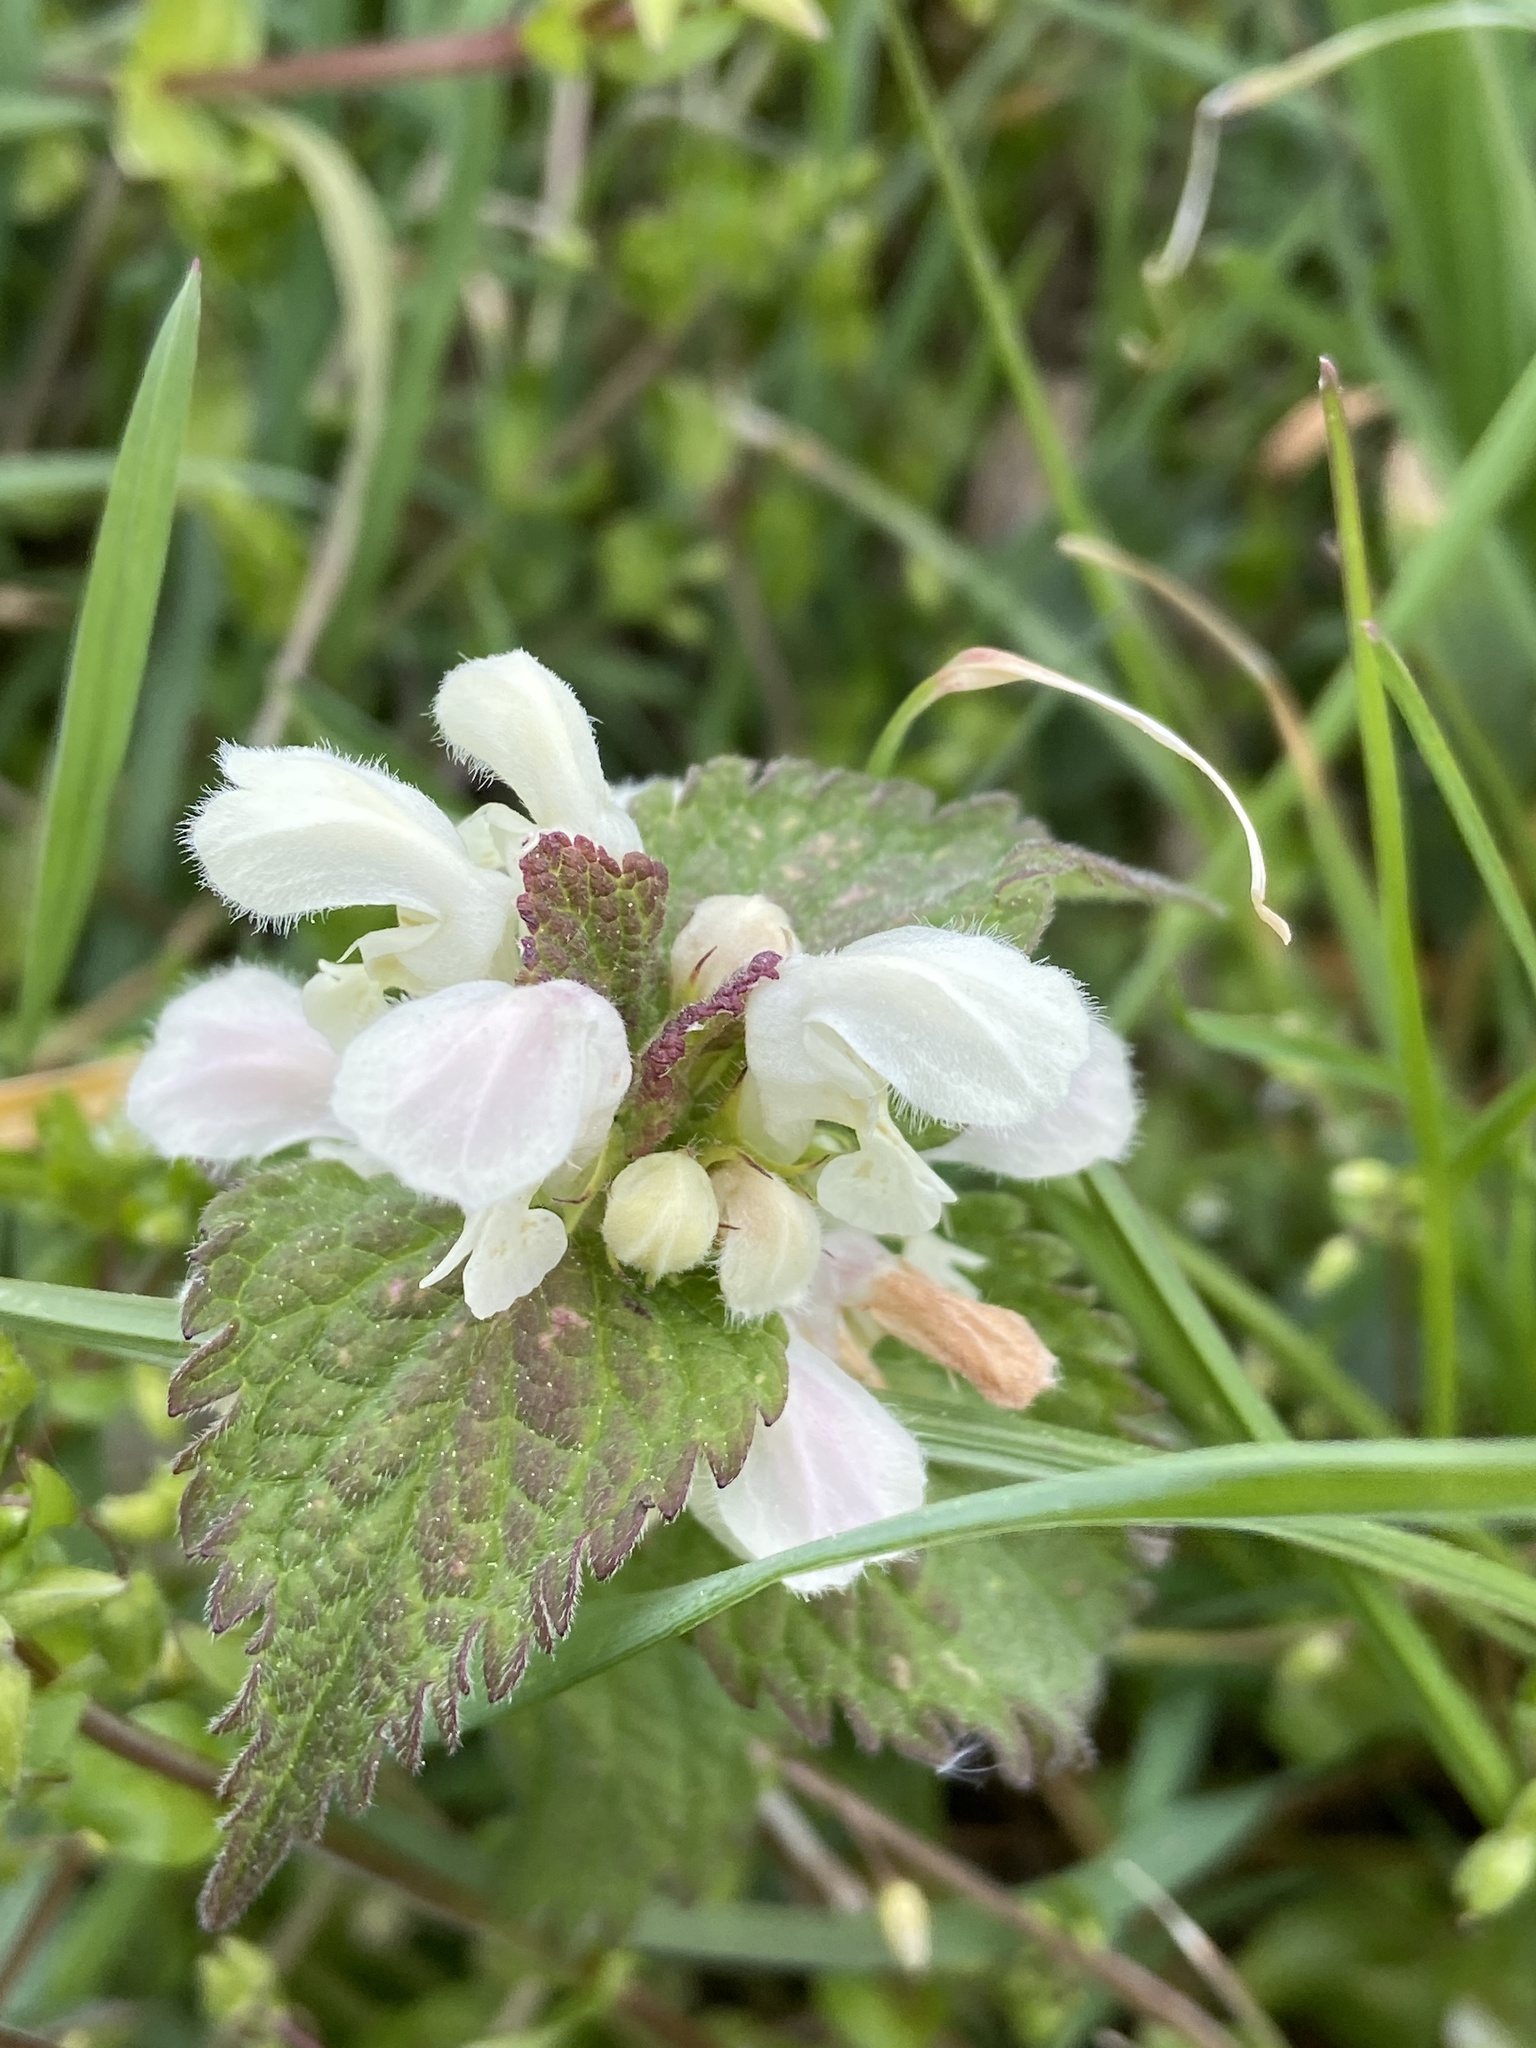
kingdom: Plantae
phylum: Tracheophyta
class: Magnoliopsida
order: Lamiales
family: Lamiaceae
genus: Lamium
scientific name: Lamium holsaticum
